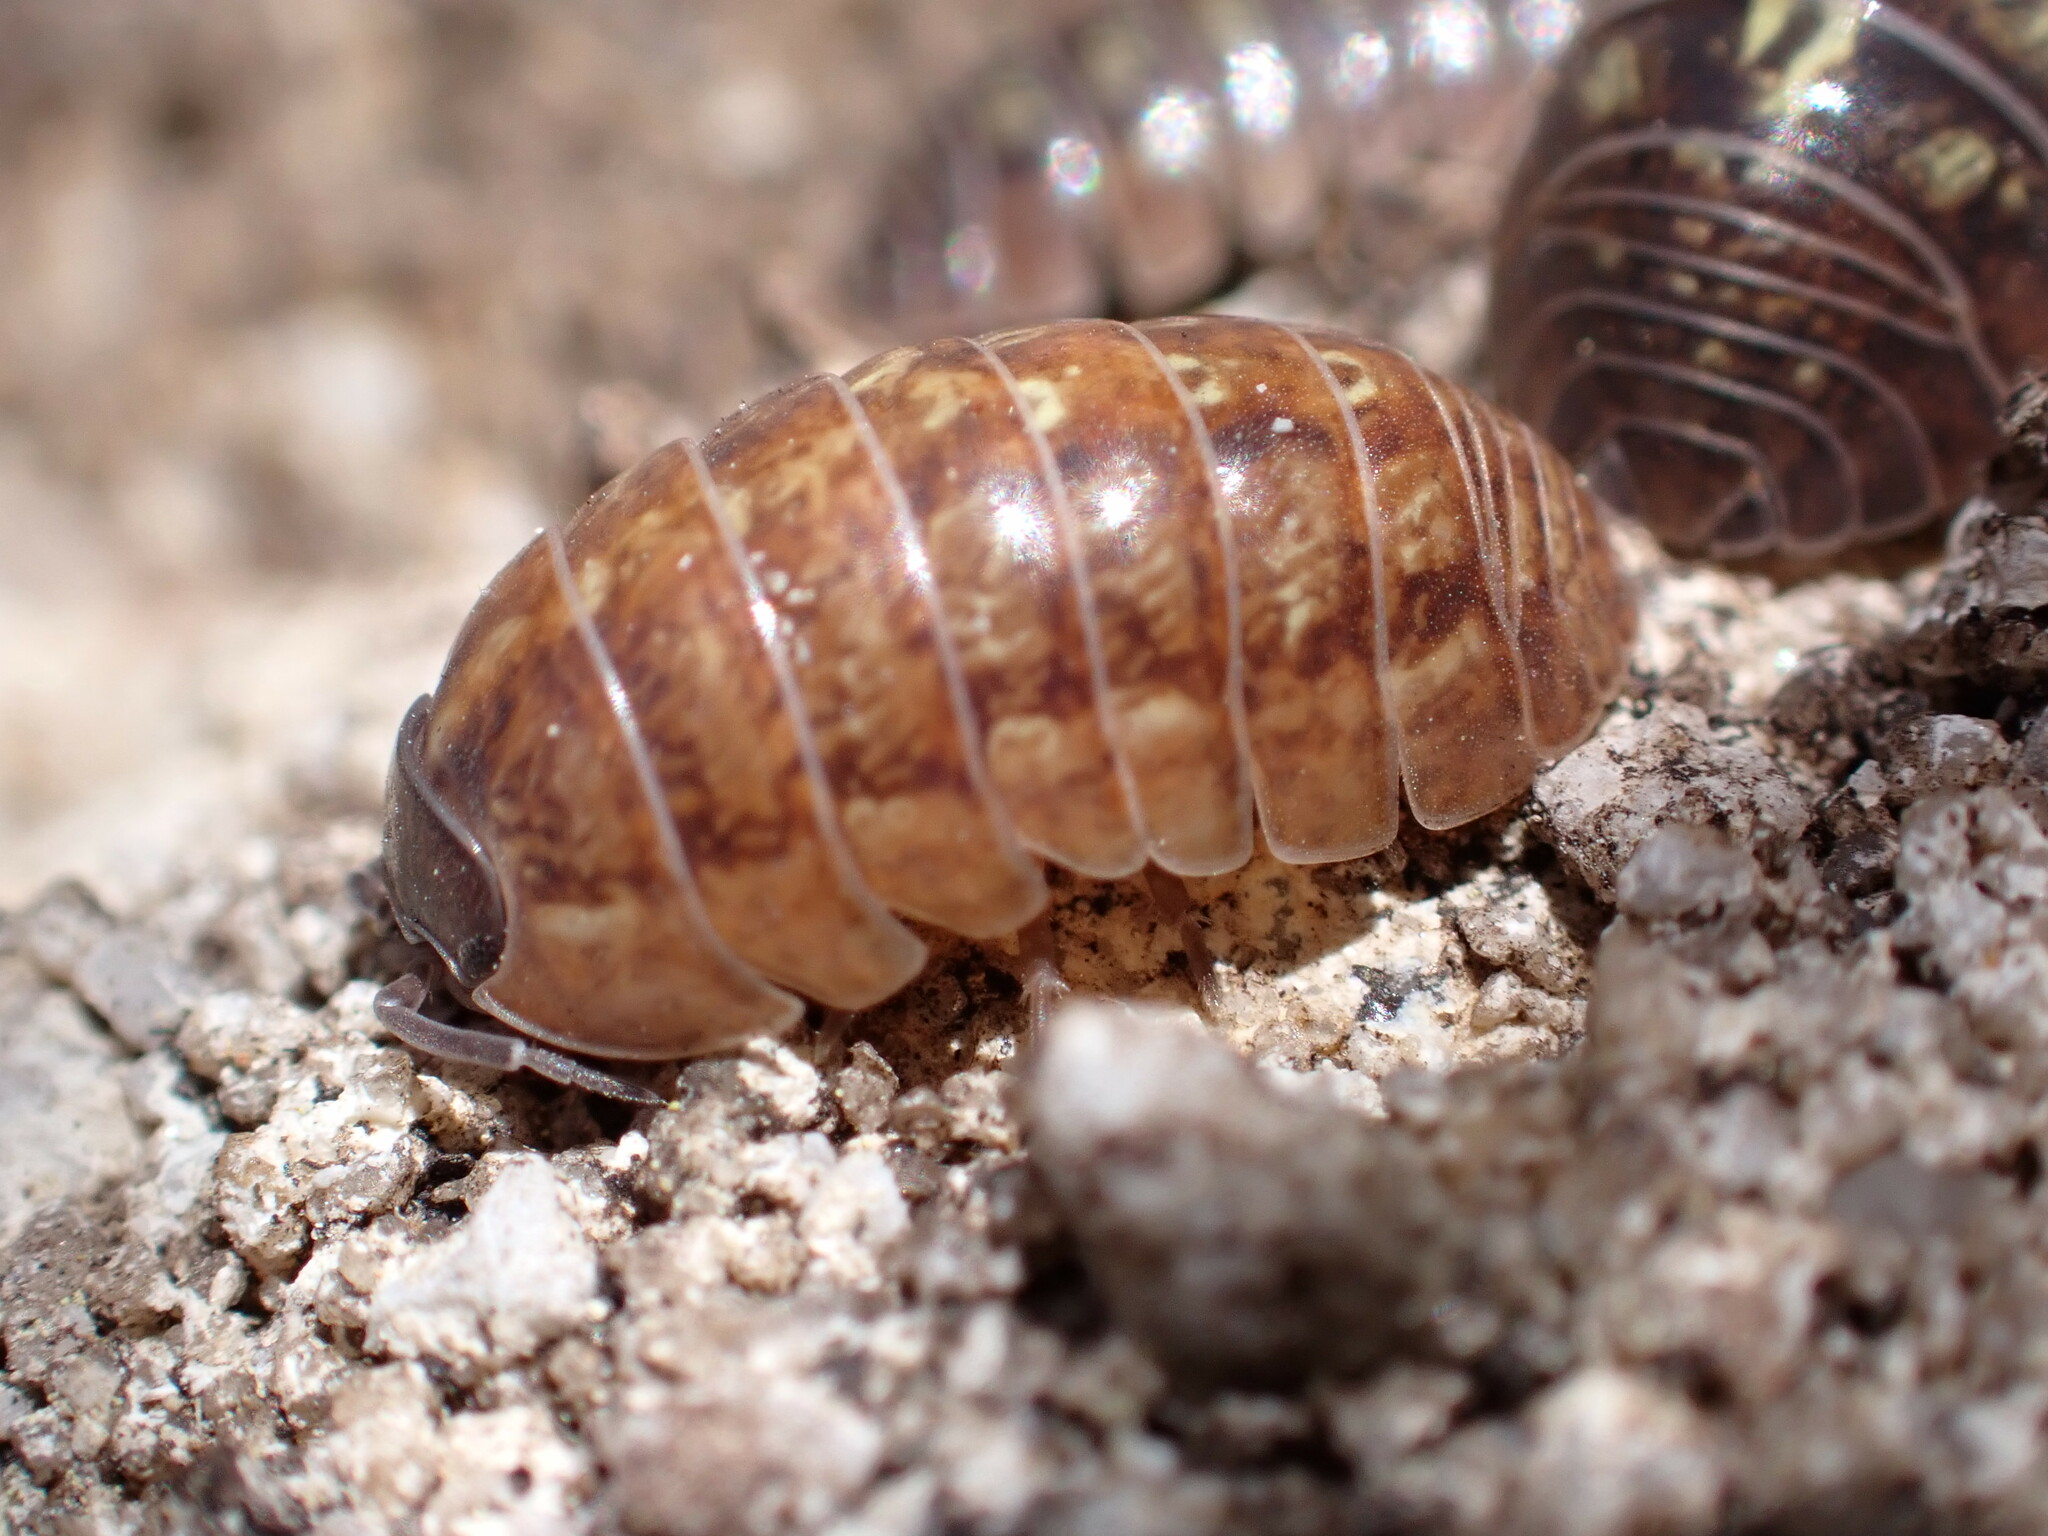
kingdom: Animalia
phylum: Arthropoda
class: Malacostraca
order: Isopoda
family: Armadillidiidae
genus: Armadillidium
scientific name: Armadillidium vulgare
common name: Common pill woodlouse
